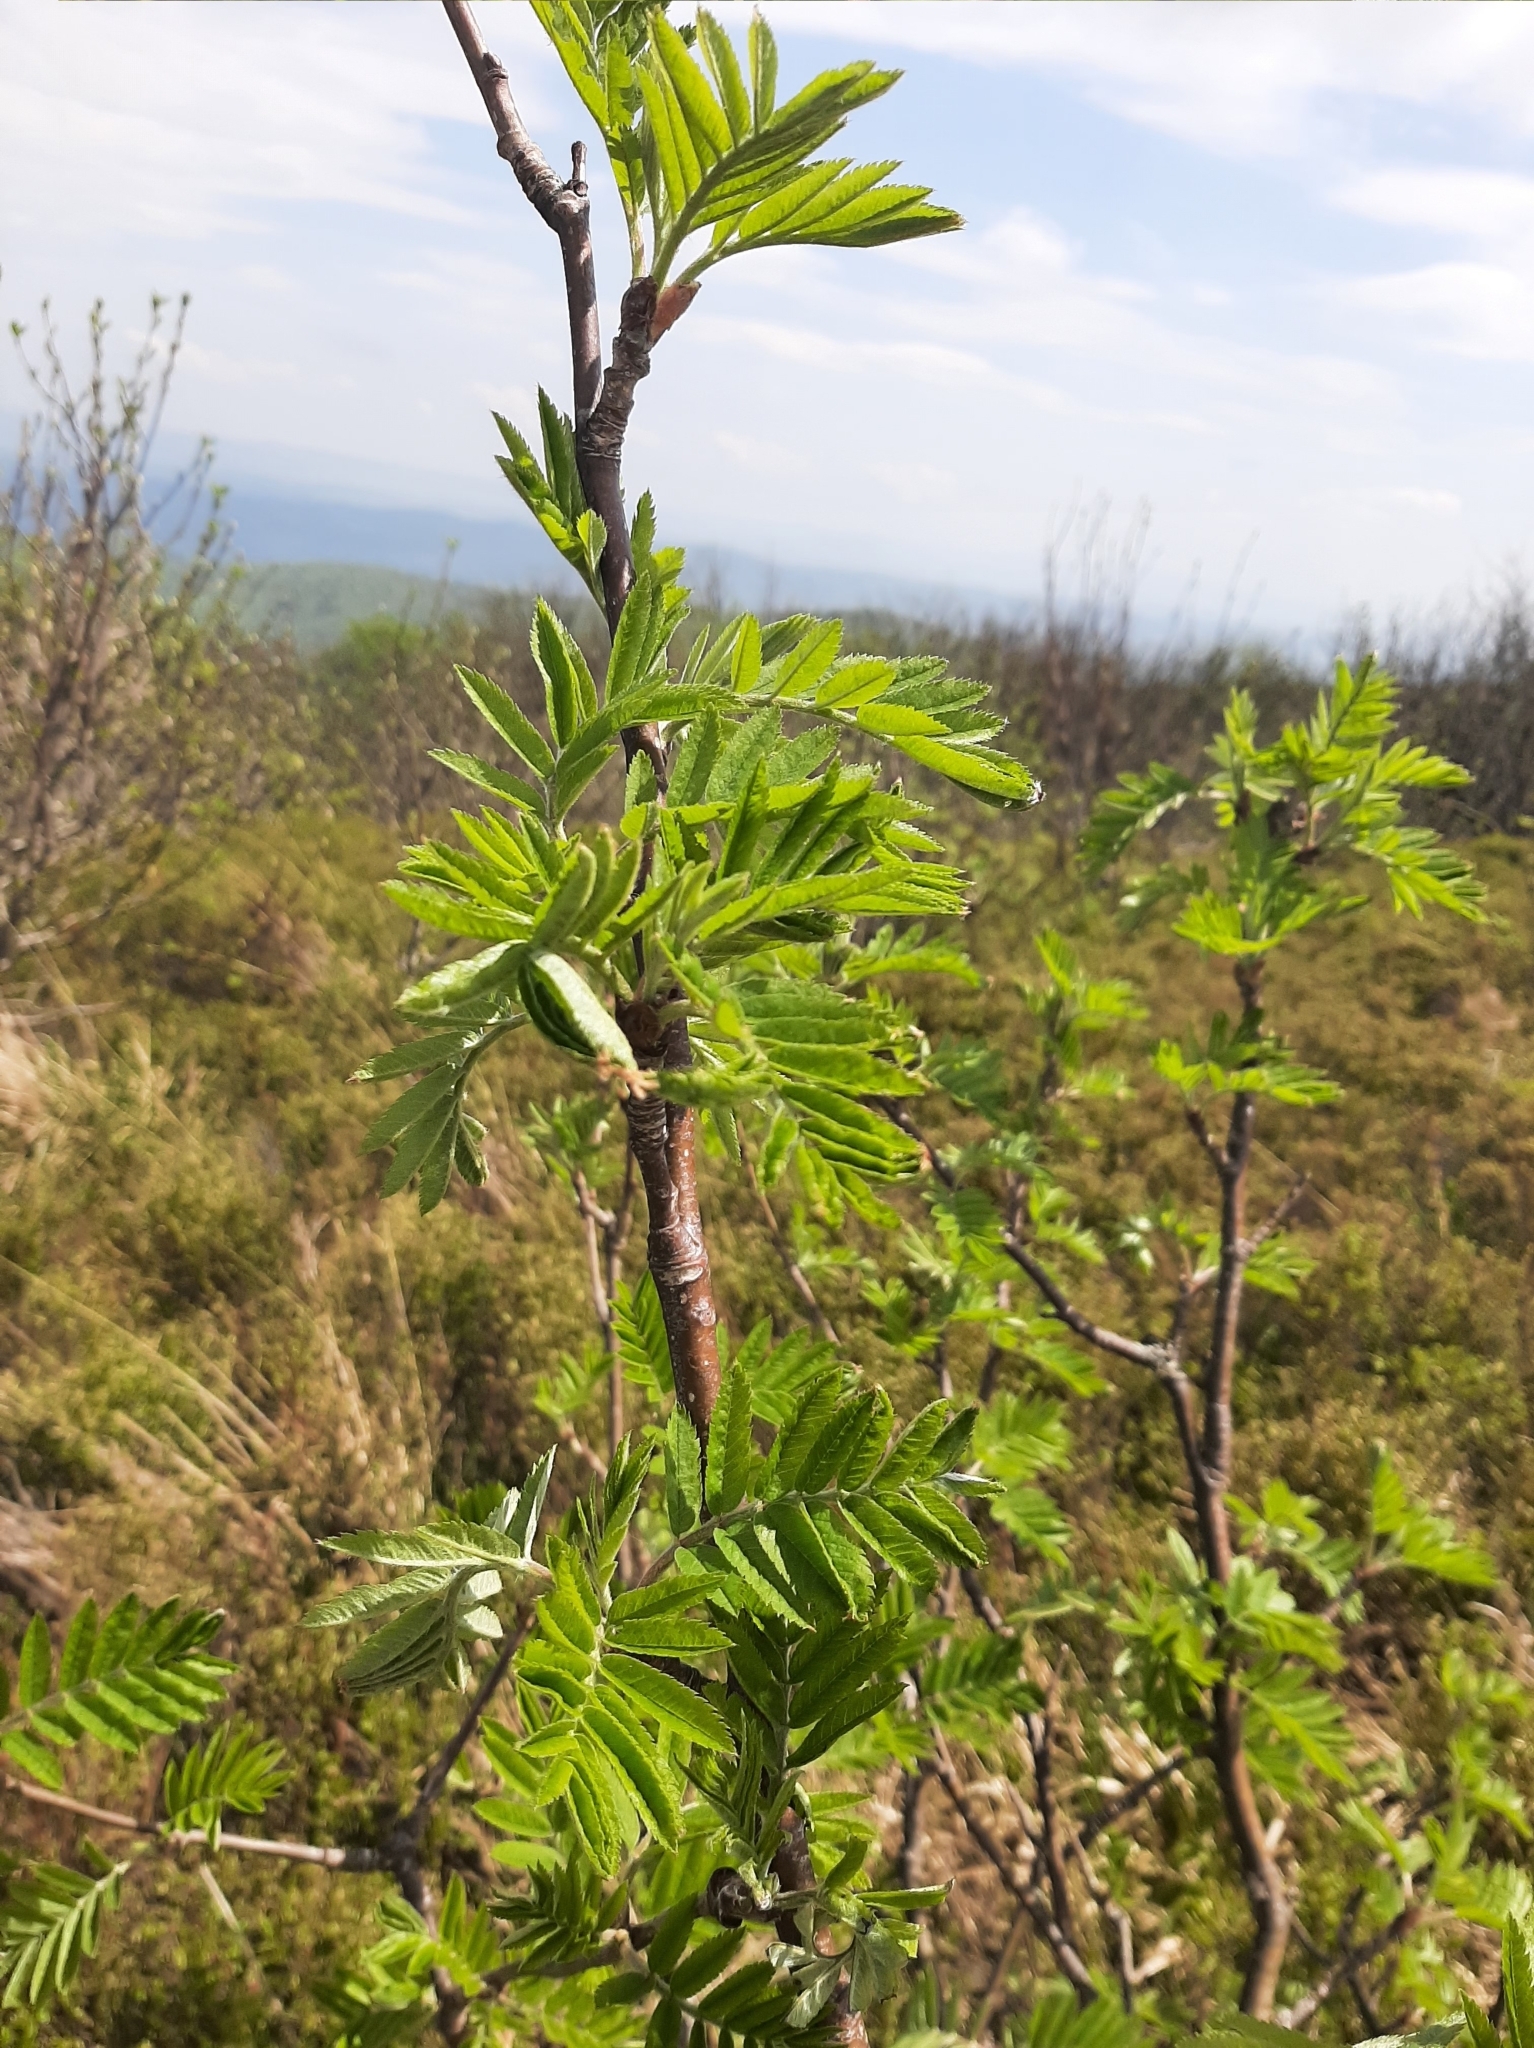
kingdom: Plantae
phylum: Tracheophyta
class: Magnoliopsida
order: Rosales
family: Rosaceae
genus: Sorbus
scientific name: Sorbus aucuparia
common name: Rowan
